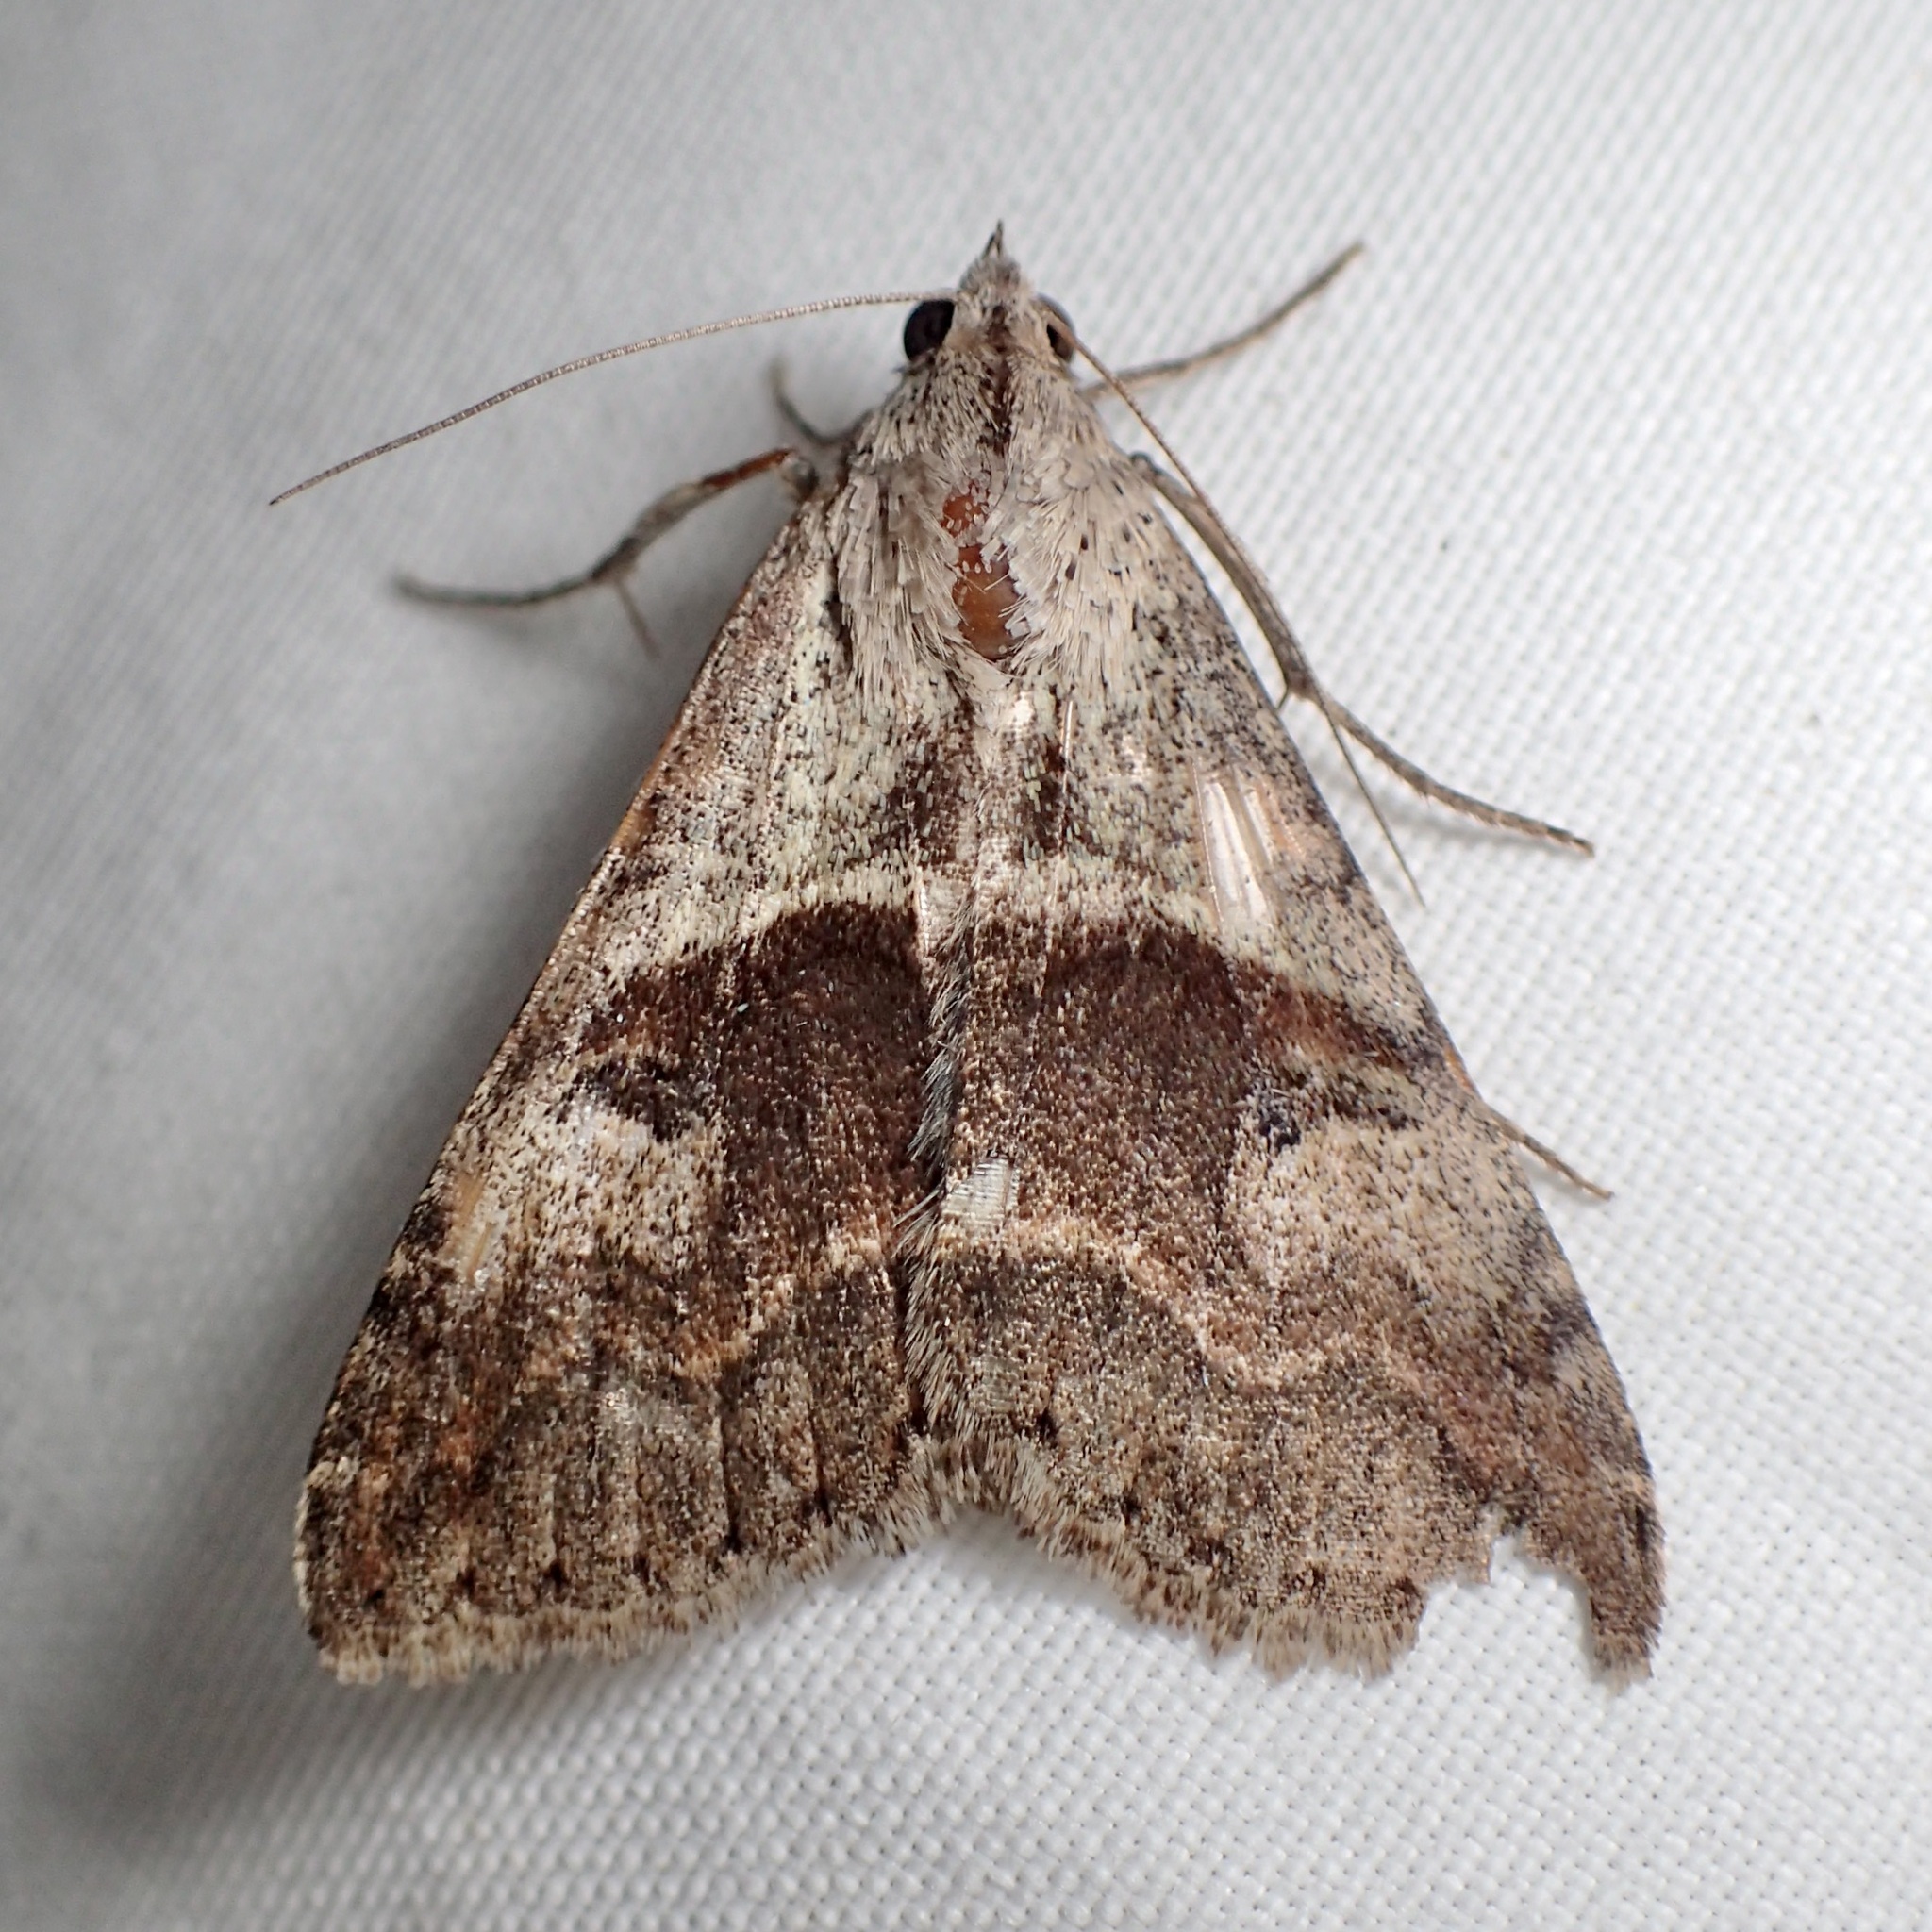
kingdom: Animalia
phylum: Arthropoda
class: Insecta
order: Lepidoptera
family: Erebidae
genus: Melipotis
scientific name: Melipotis cellaris
